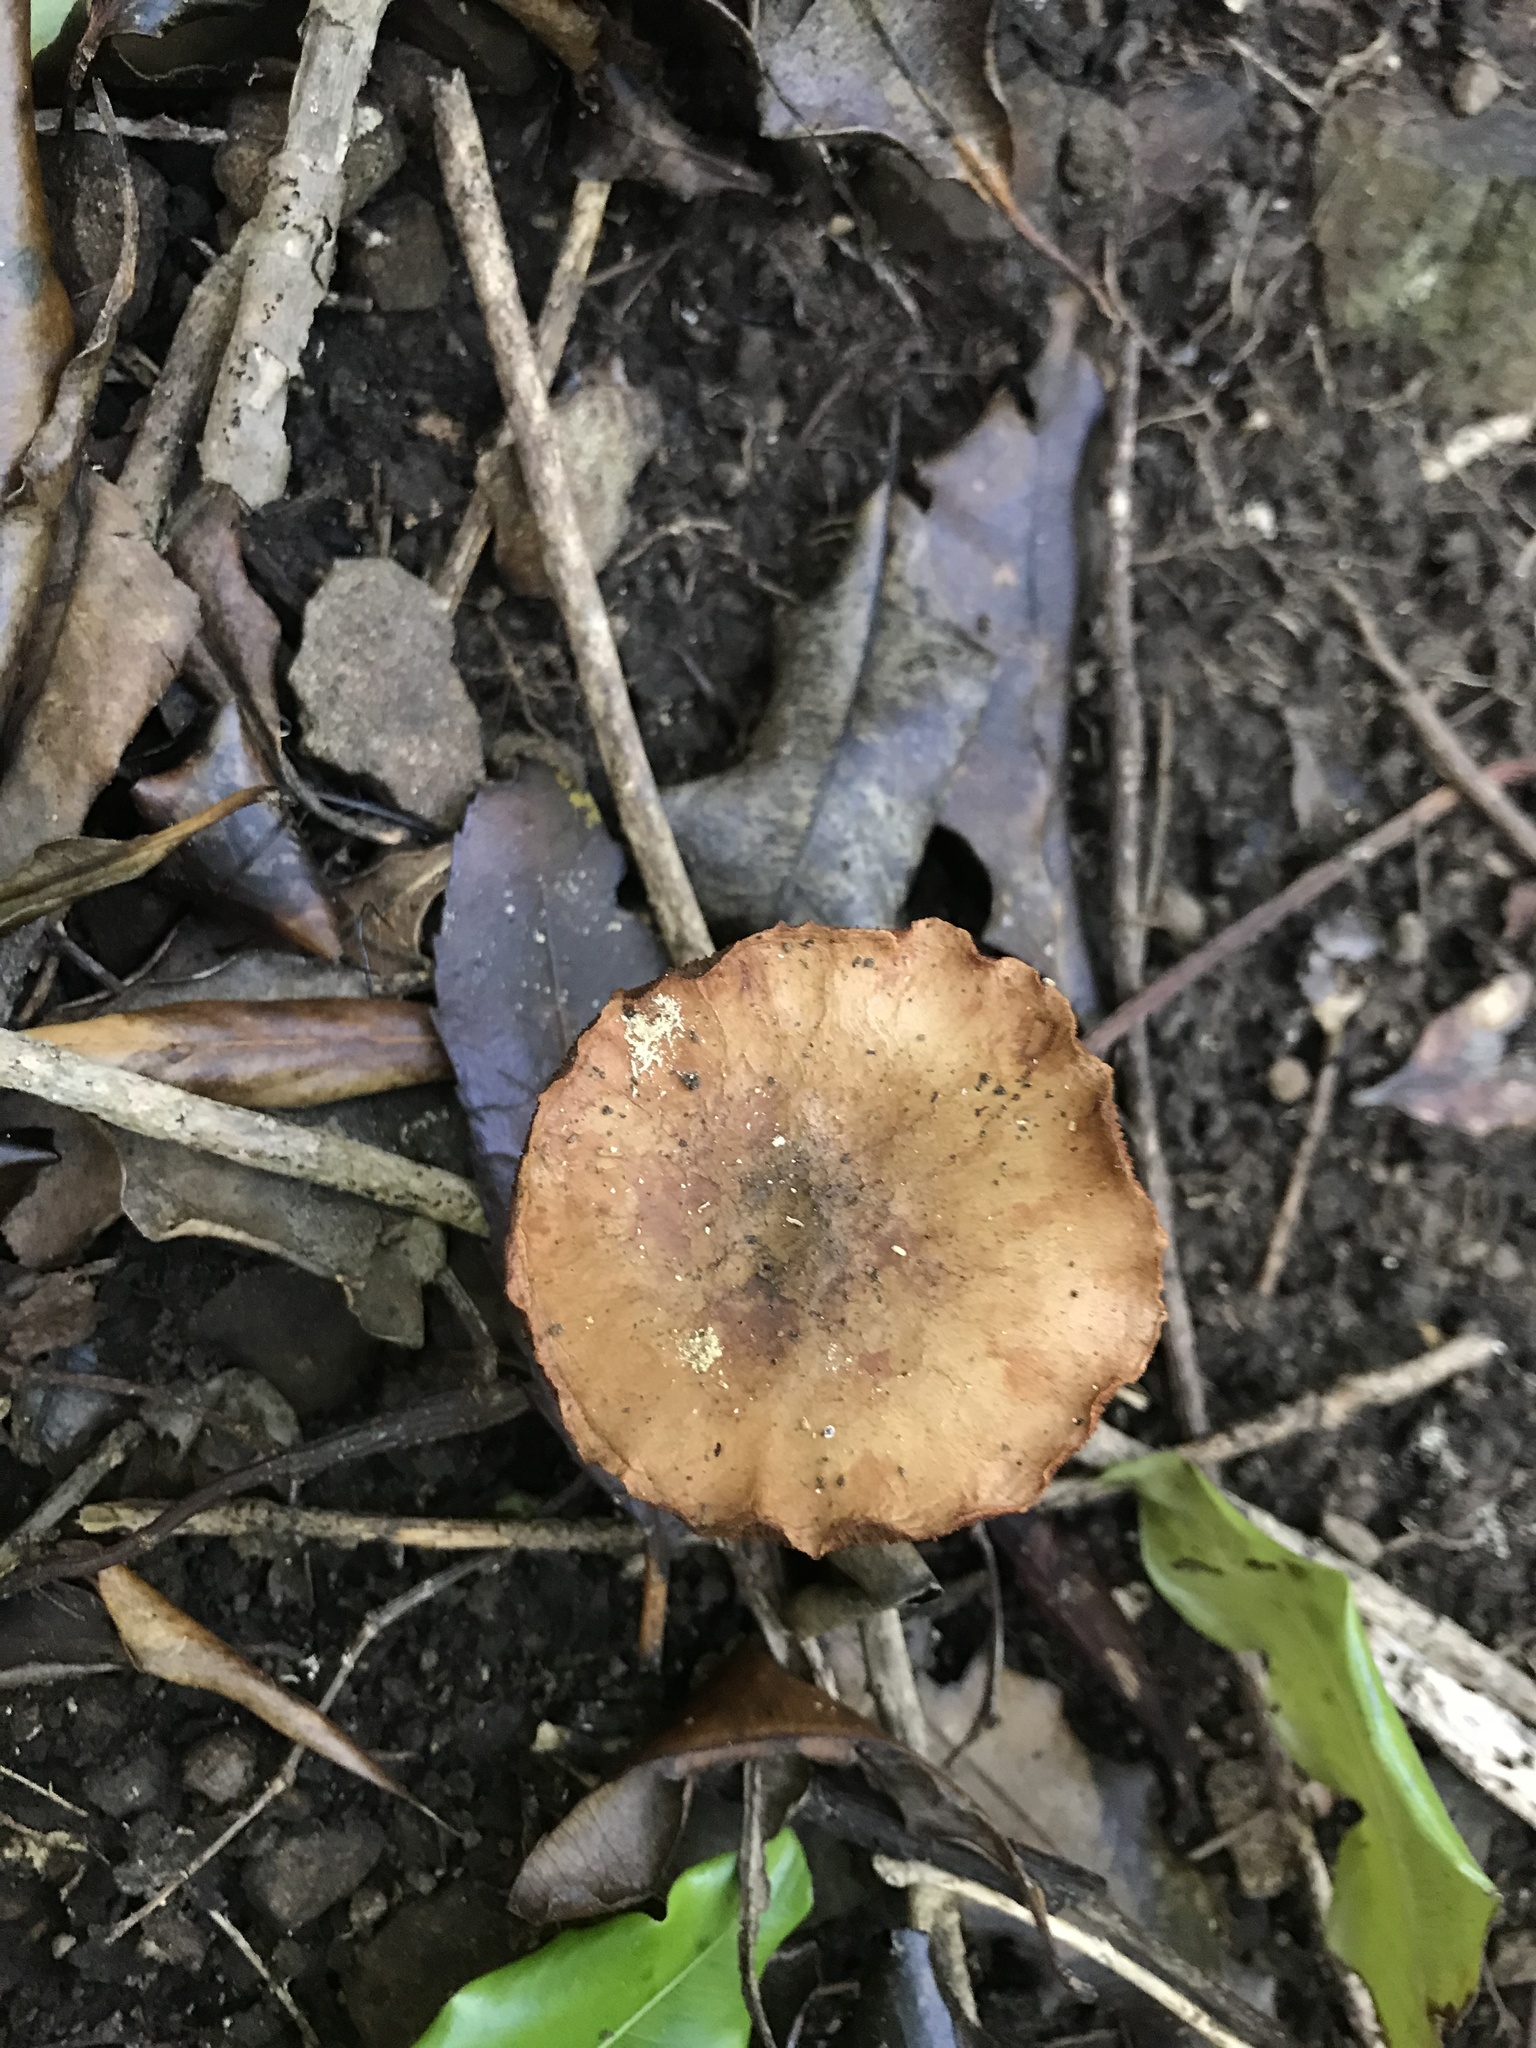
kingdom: Fungi
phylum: Basidiomycota
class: Agaricomycetes
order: Boletales
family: Boletaceae
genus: Chalciporus
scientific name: Chalciporus piperatus
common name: Peppery bolete
